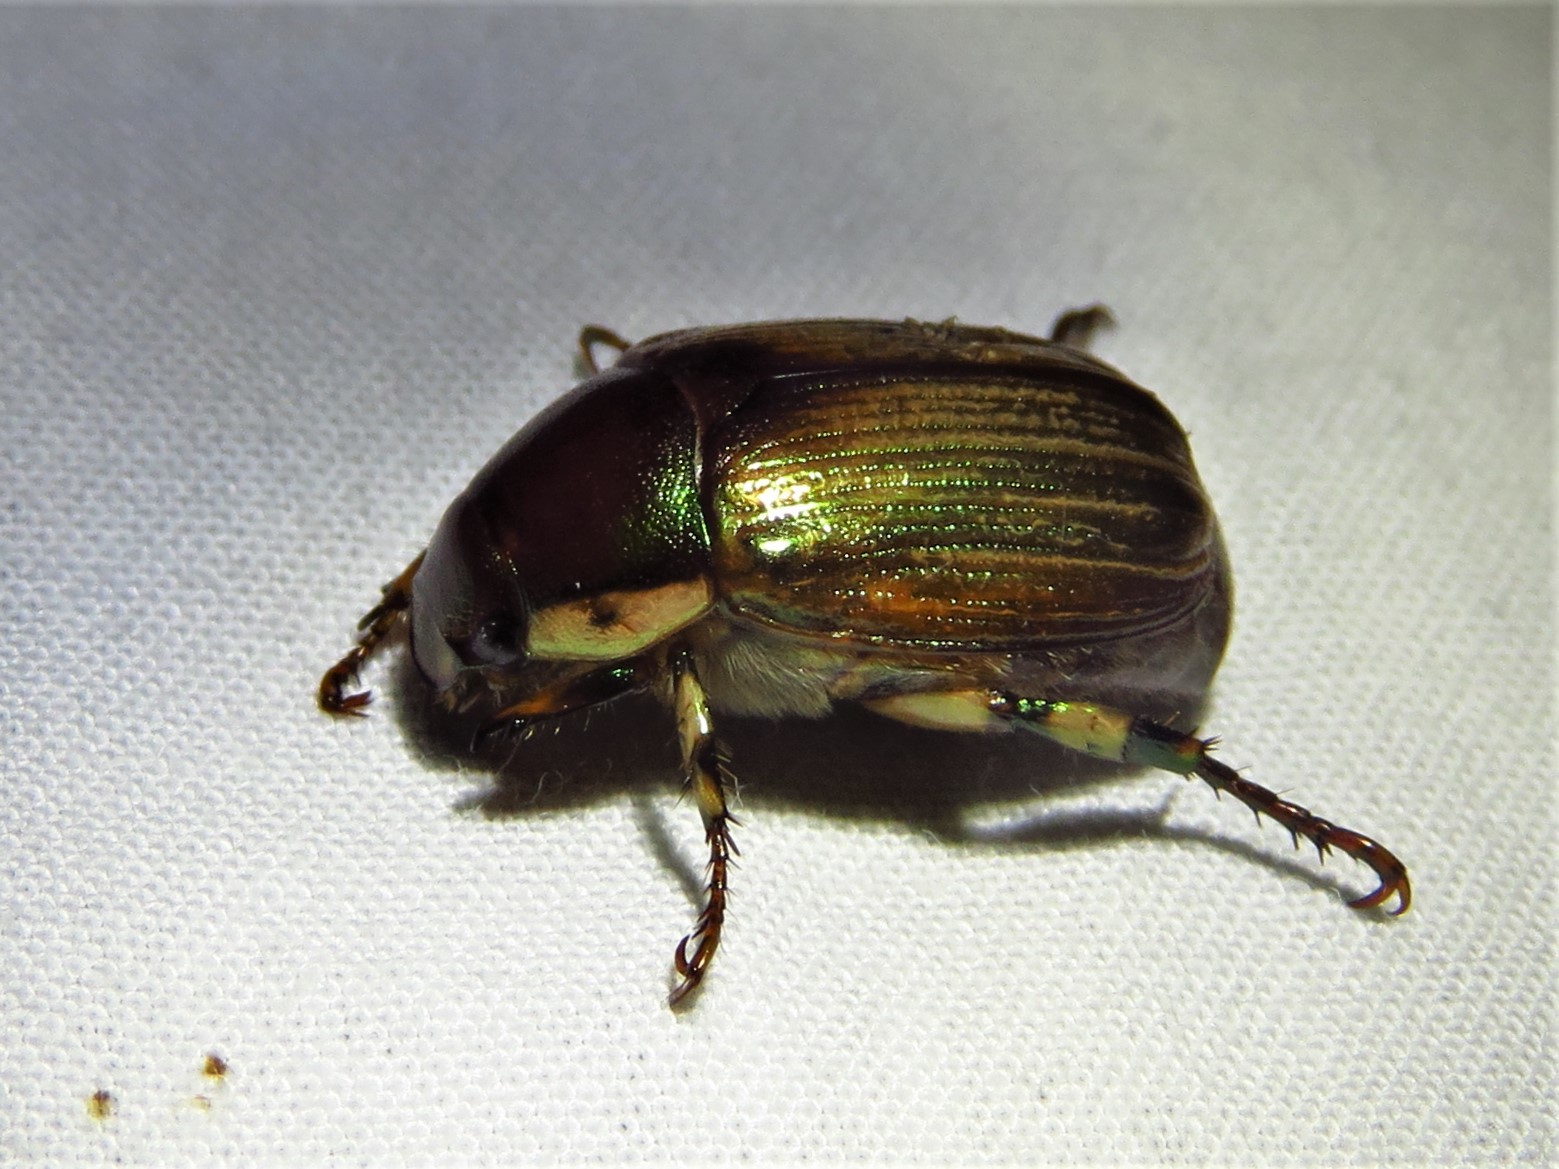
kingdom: Animalia
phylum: Arthropoda
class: Insecta
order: Coleoptera
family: Scarabaeidae
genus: Callistethus
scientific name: Callistethus marginatus
